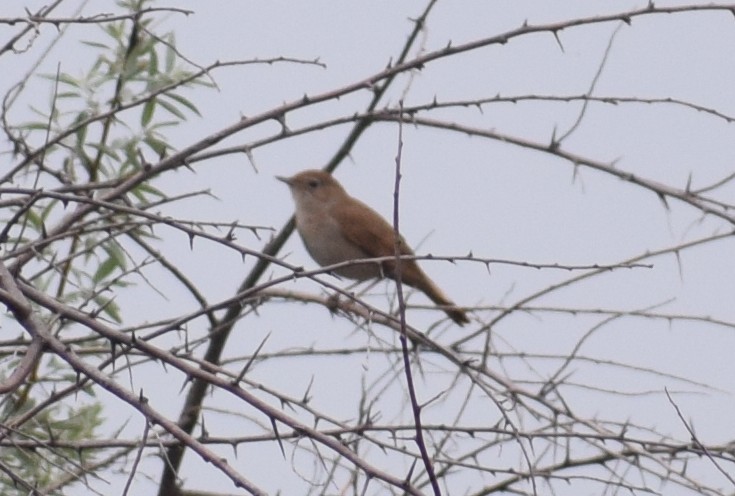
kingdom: Animalia
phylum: Chordata
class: Aves
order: Passeriformes
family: Muscicapidae
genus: Luscinia
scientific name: Luscinia megarhynchos
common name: Common nightingale
